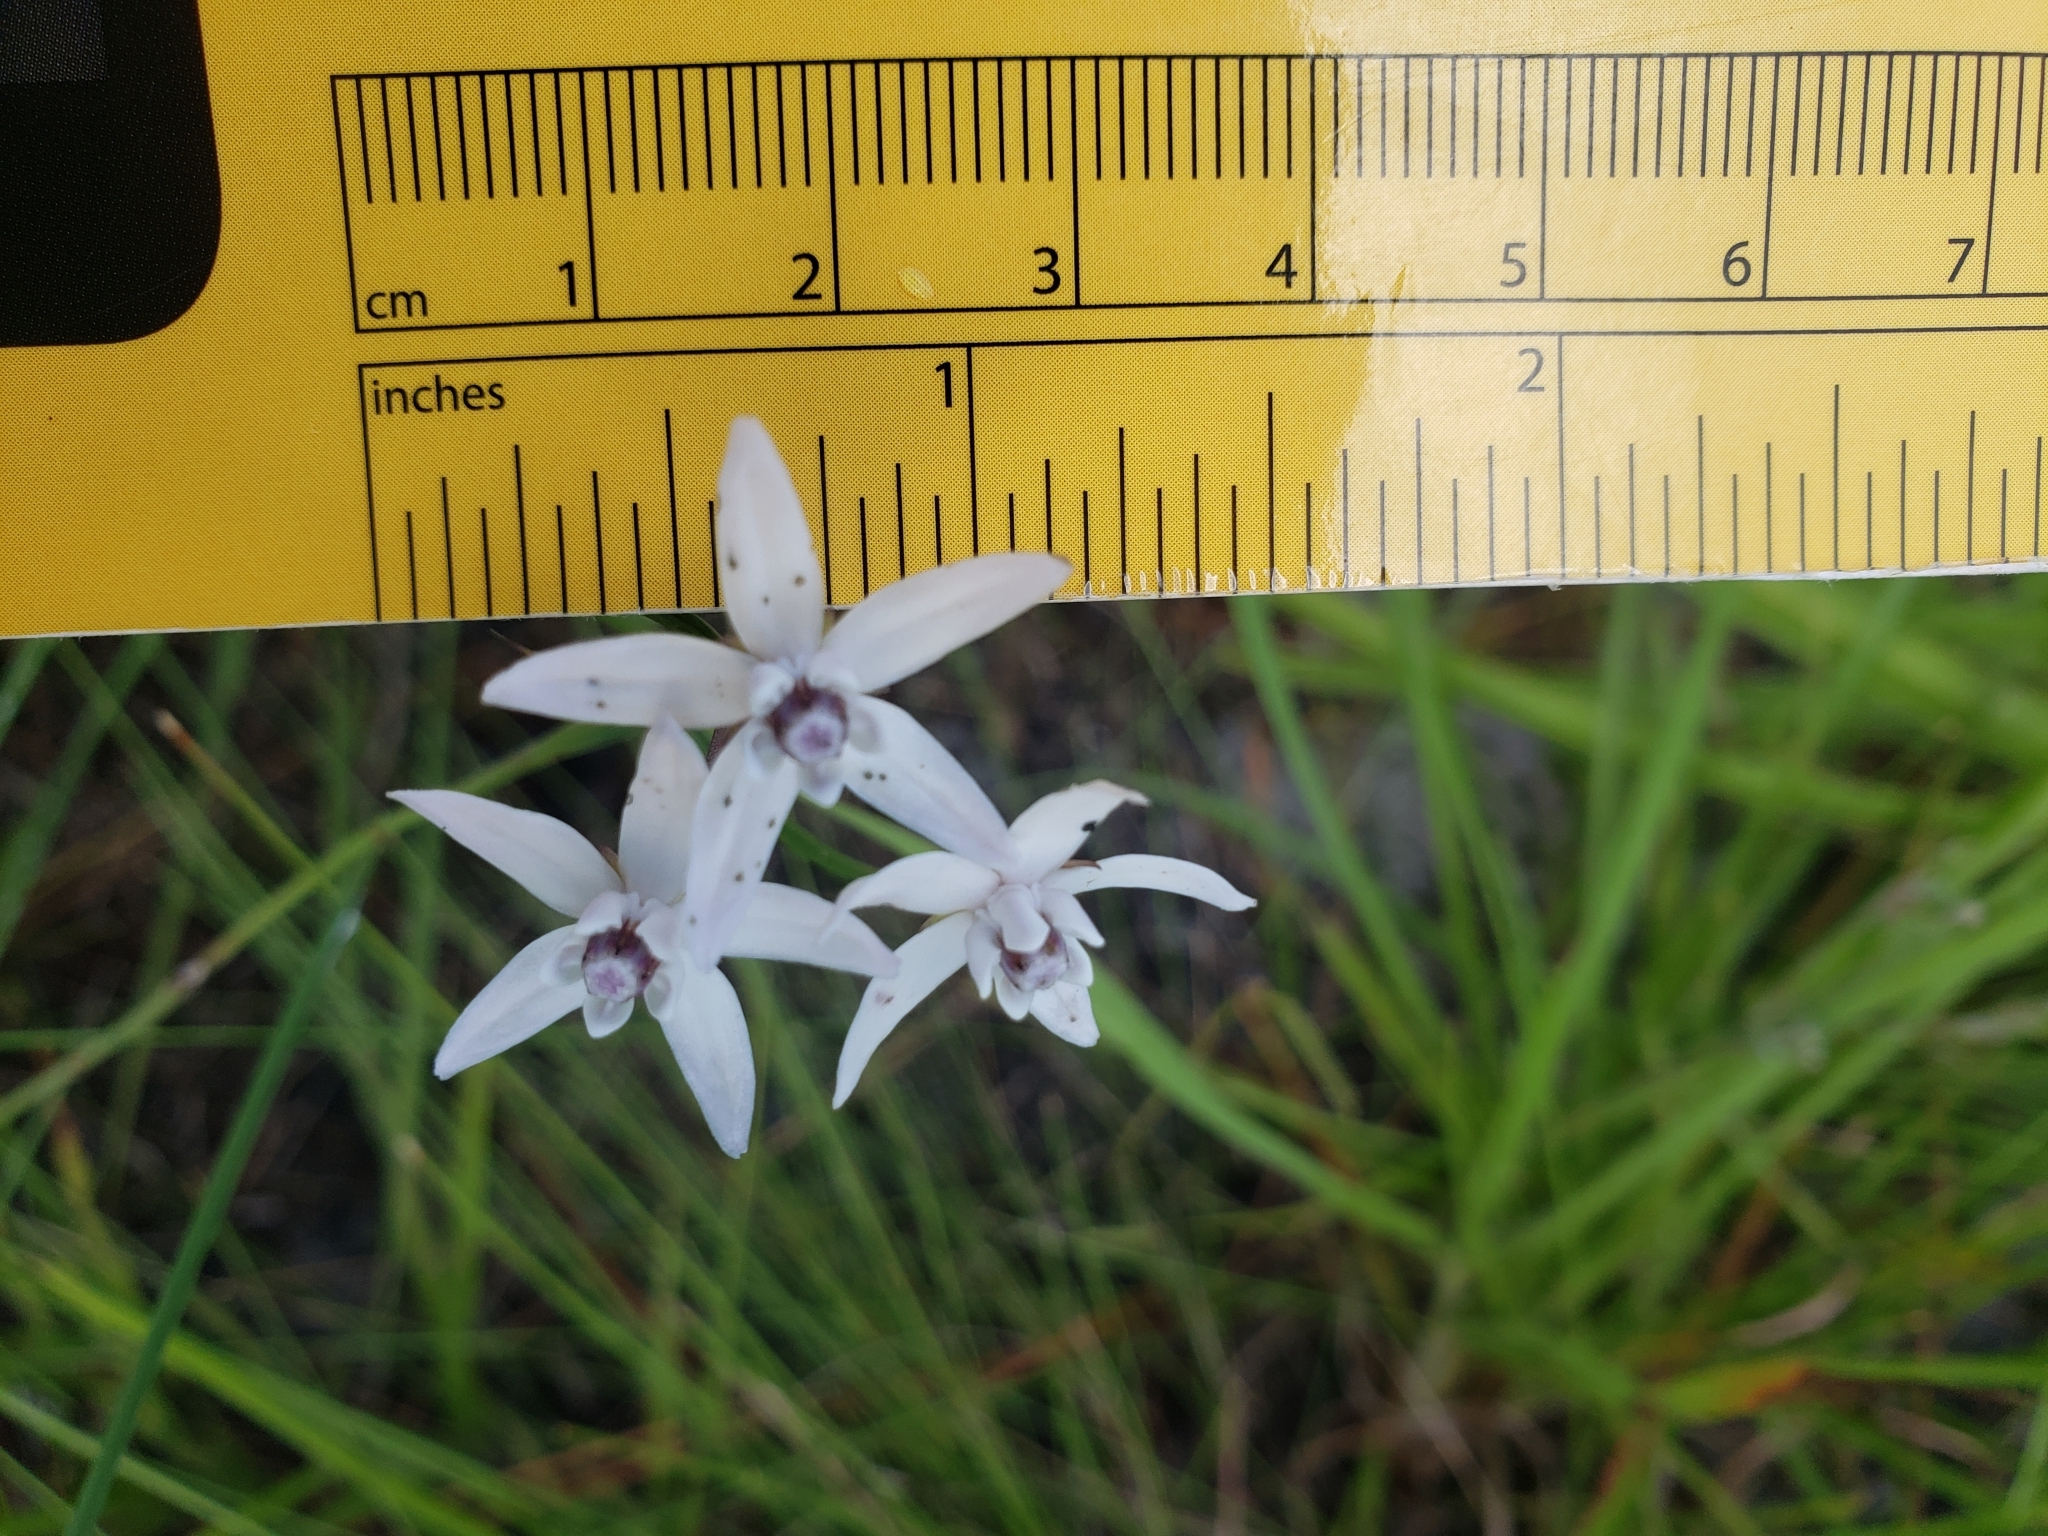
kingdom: Plantae
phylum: Tracheophyta
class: Magnoliopsida
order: Gentianales
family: Apocynaceae
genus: Asclepias
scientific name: Asclepias feayi
